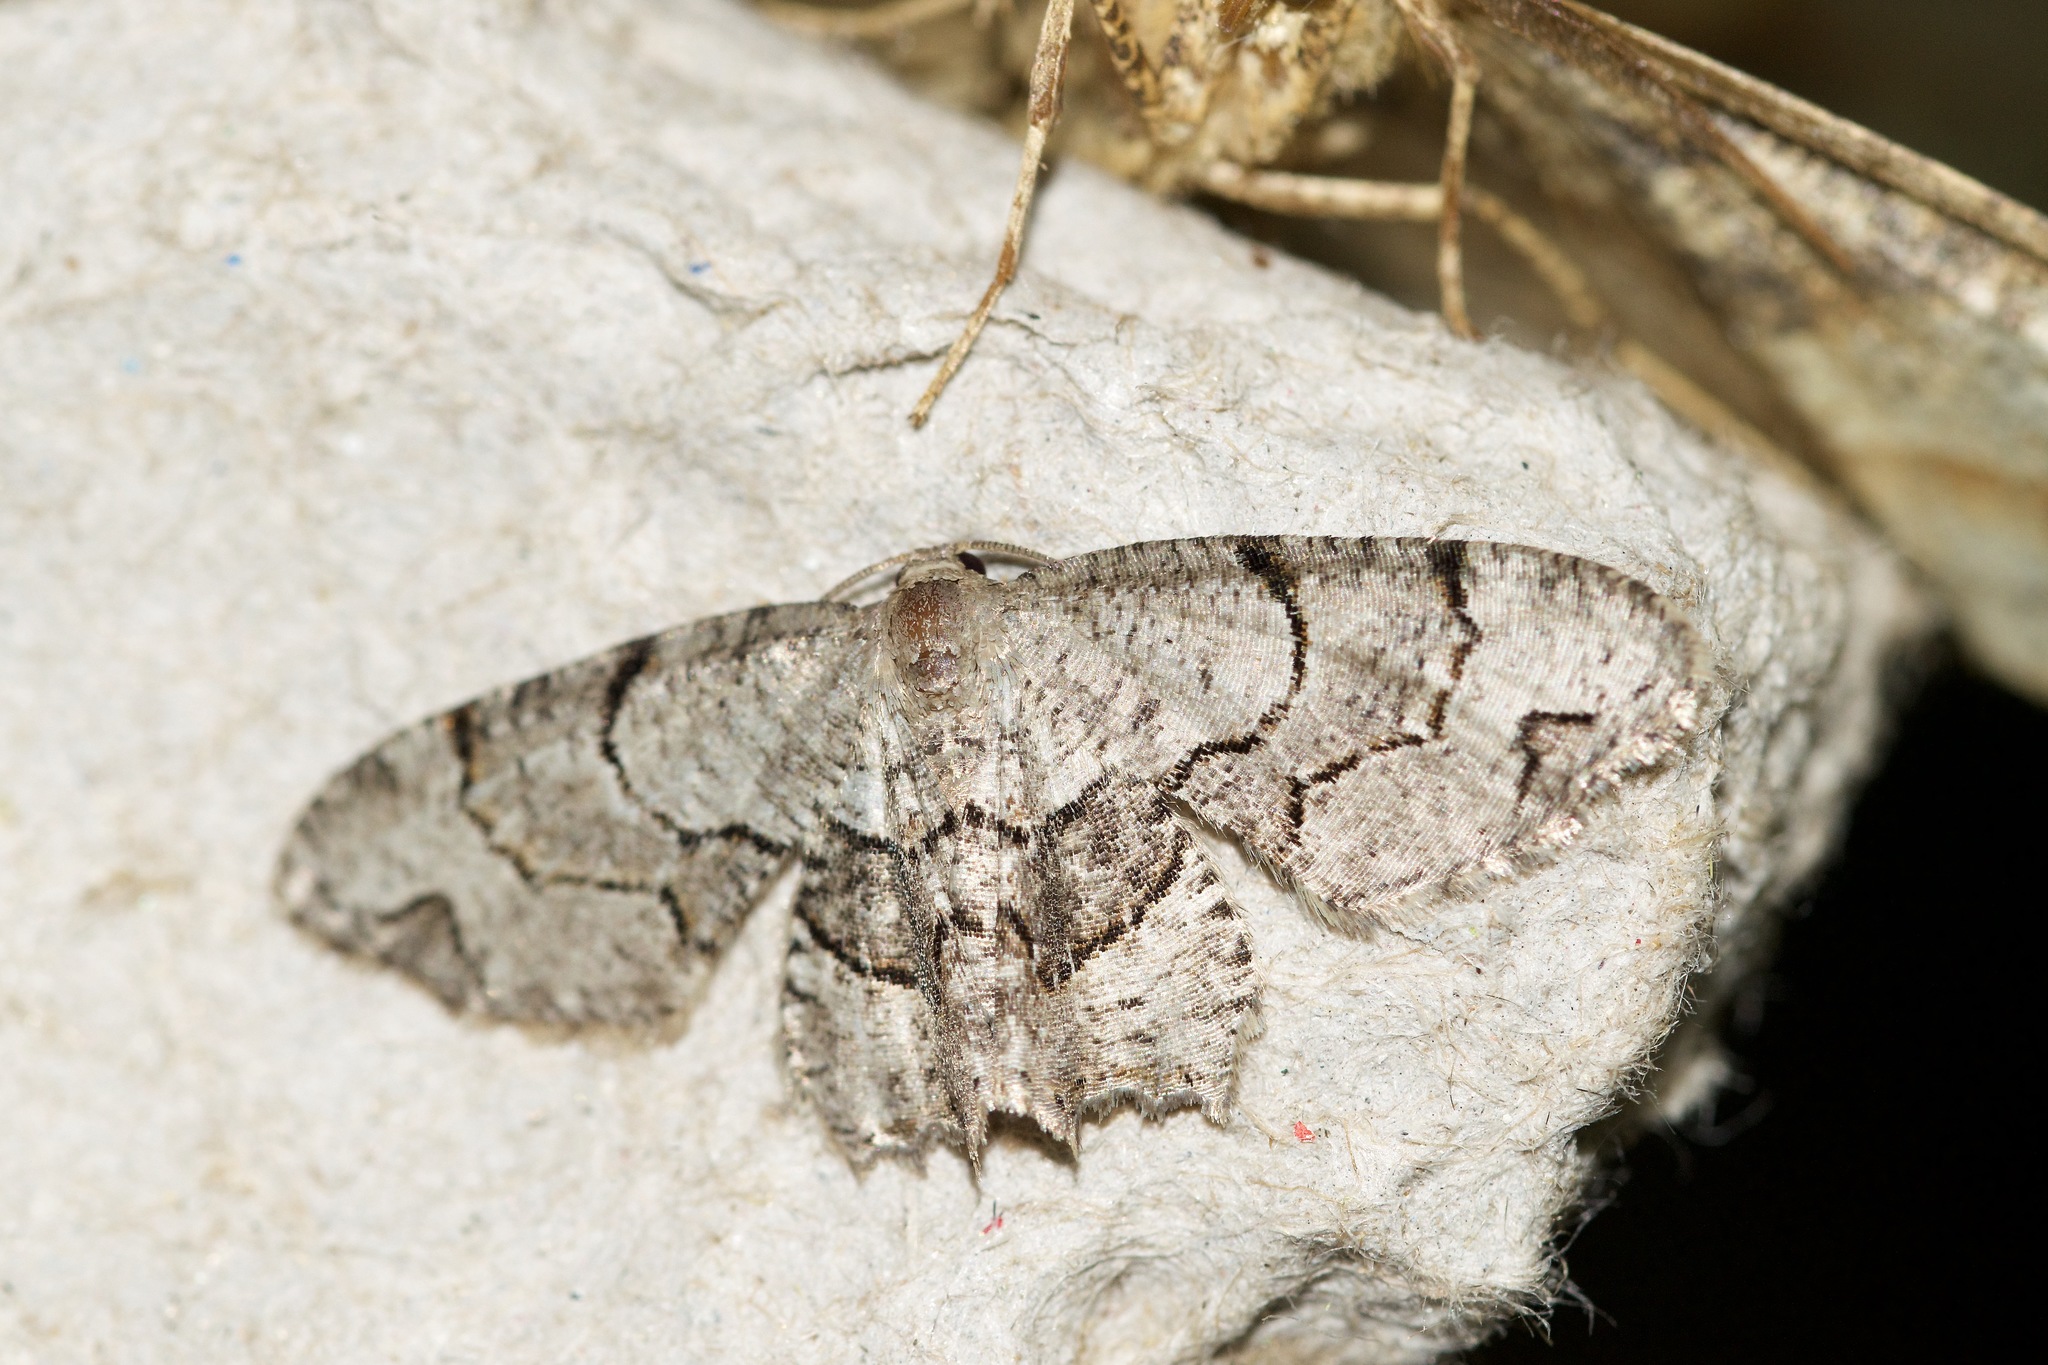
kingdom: Animalia
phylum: Arthropoda
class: Insecta
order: Lepidoptera
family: Uraniidae
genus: Epiplema
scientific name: Epiplema Callizzia amorata
